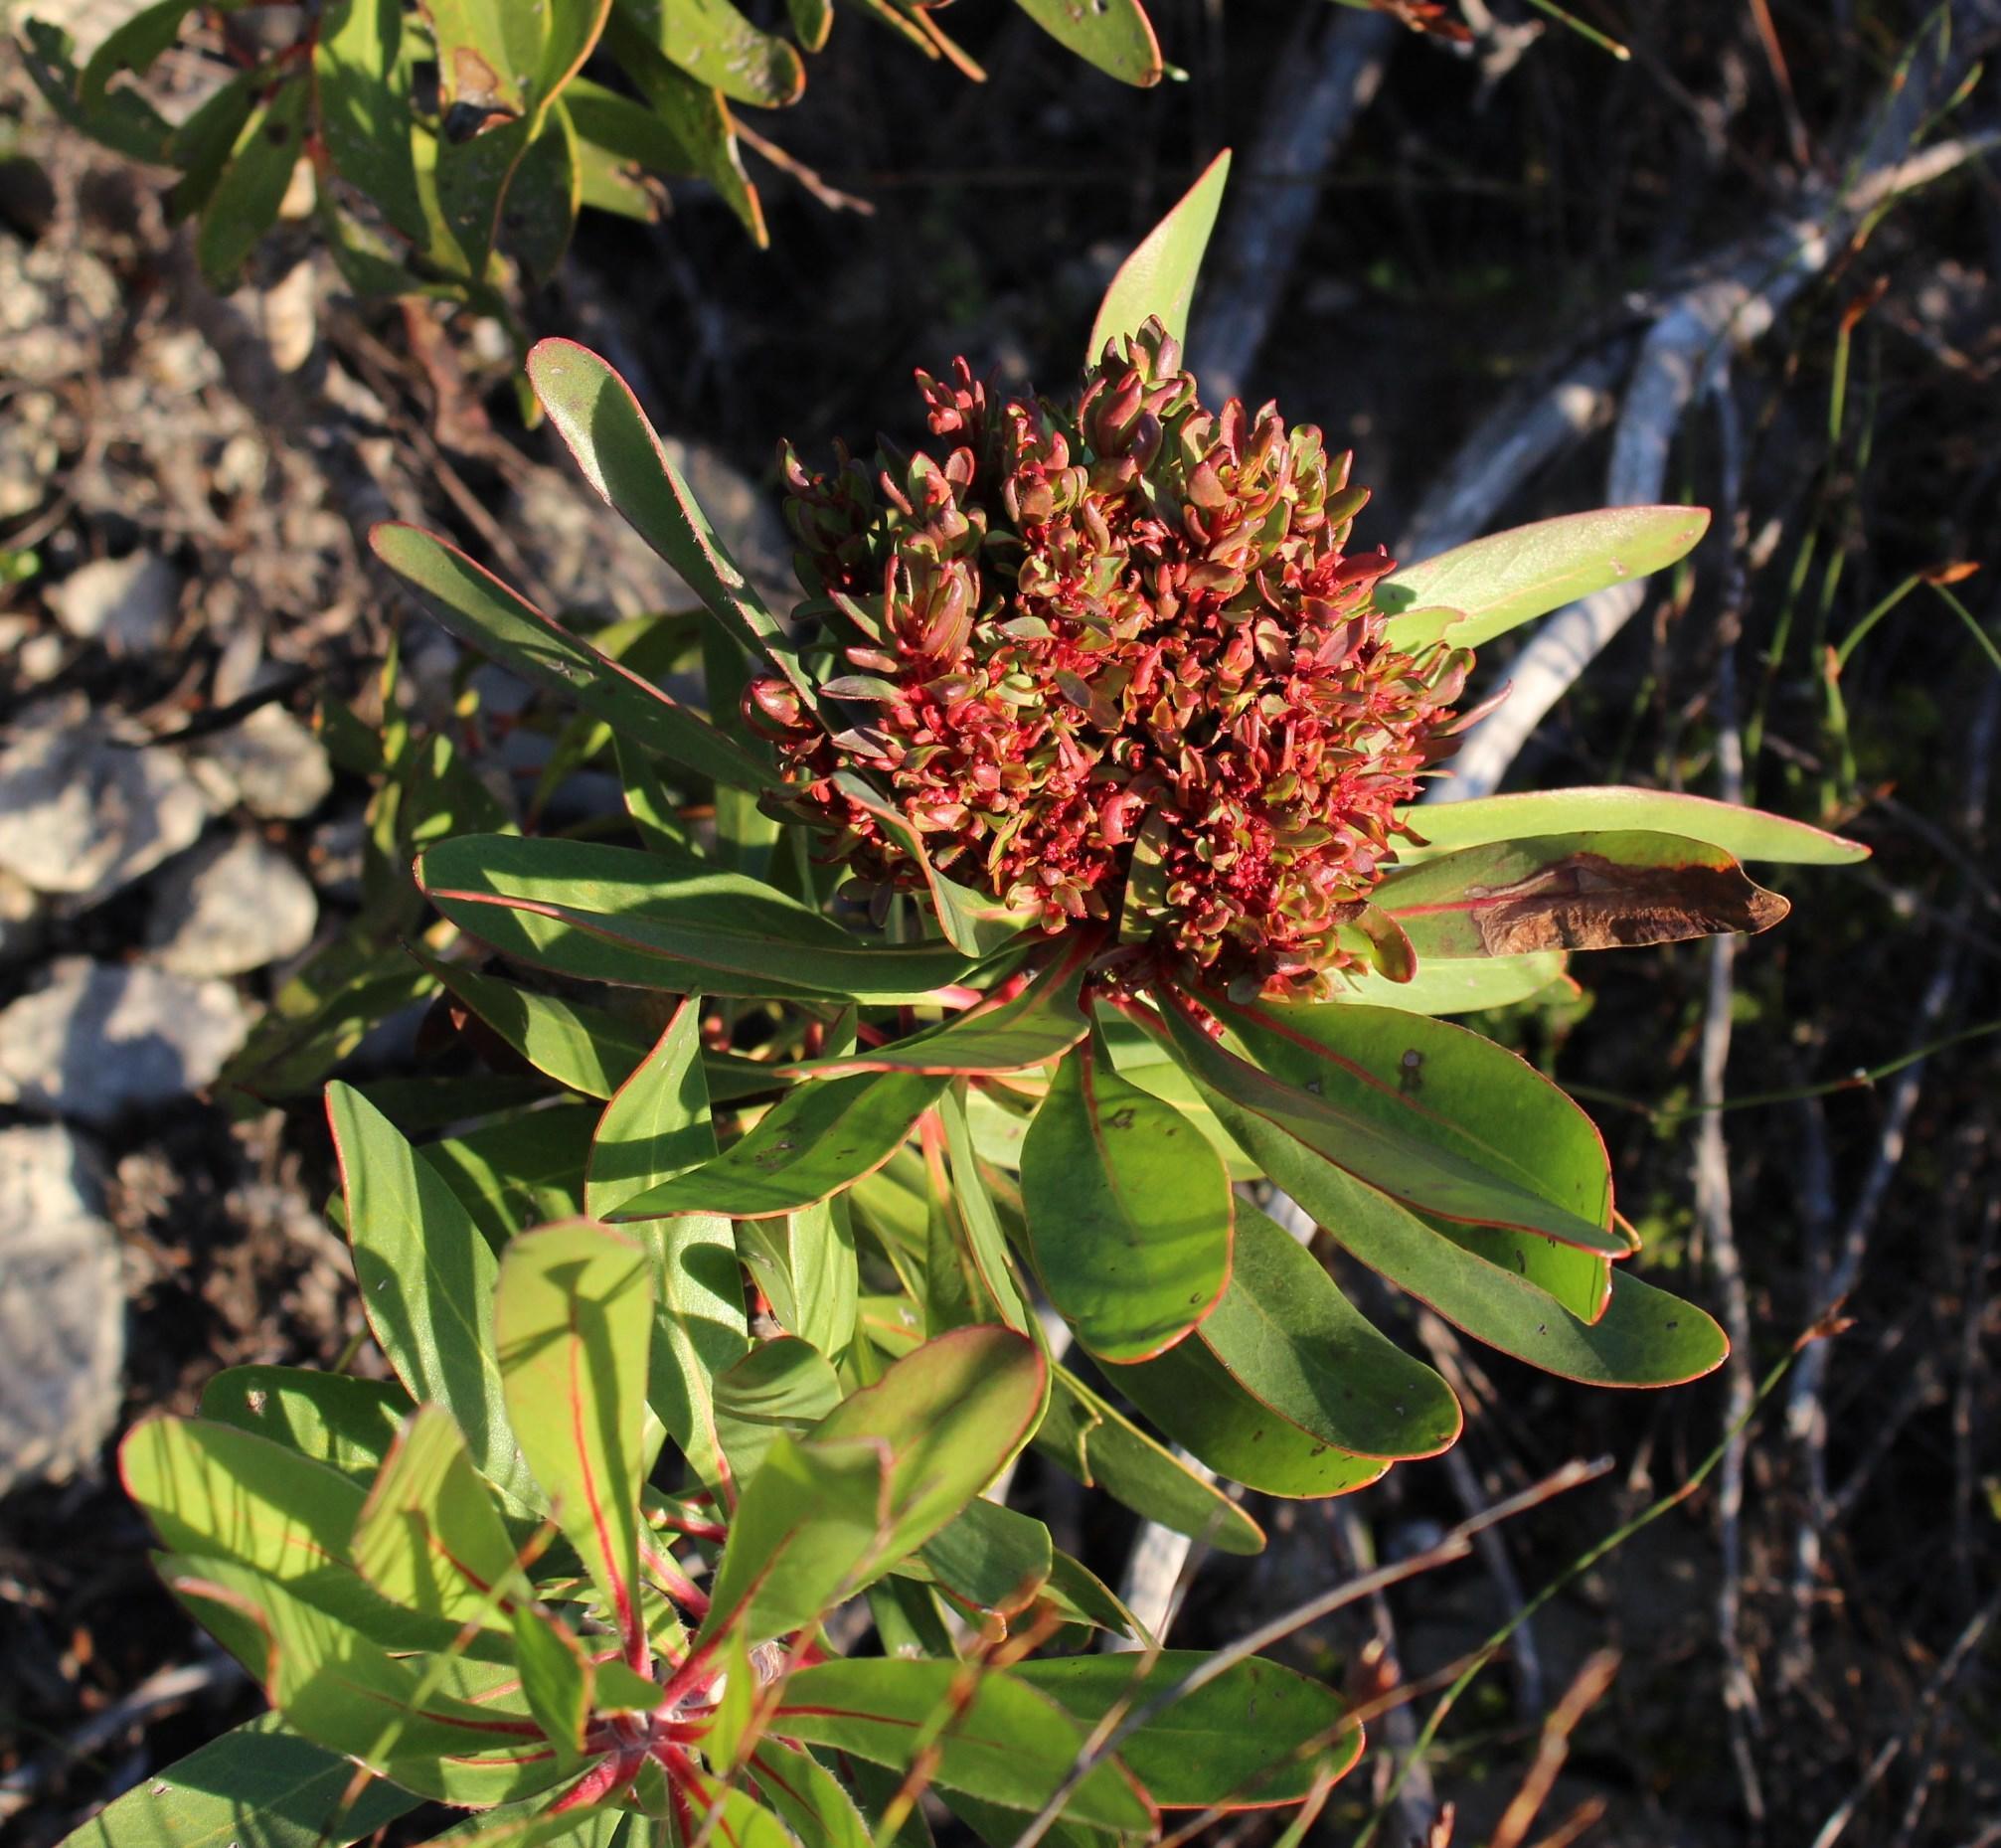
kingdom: Bacteria
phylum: Firmicutes
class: Bacilli
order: Acholeplasmatales
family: Acholeplasmataceae
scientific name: Acholeplasmataceae
